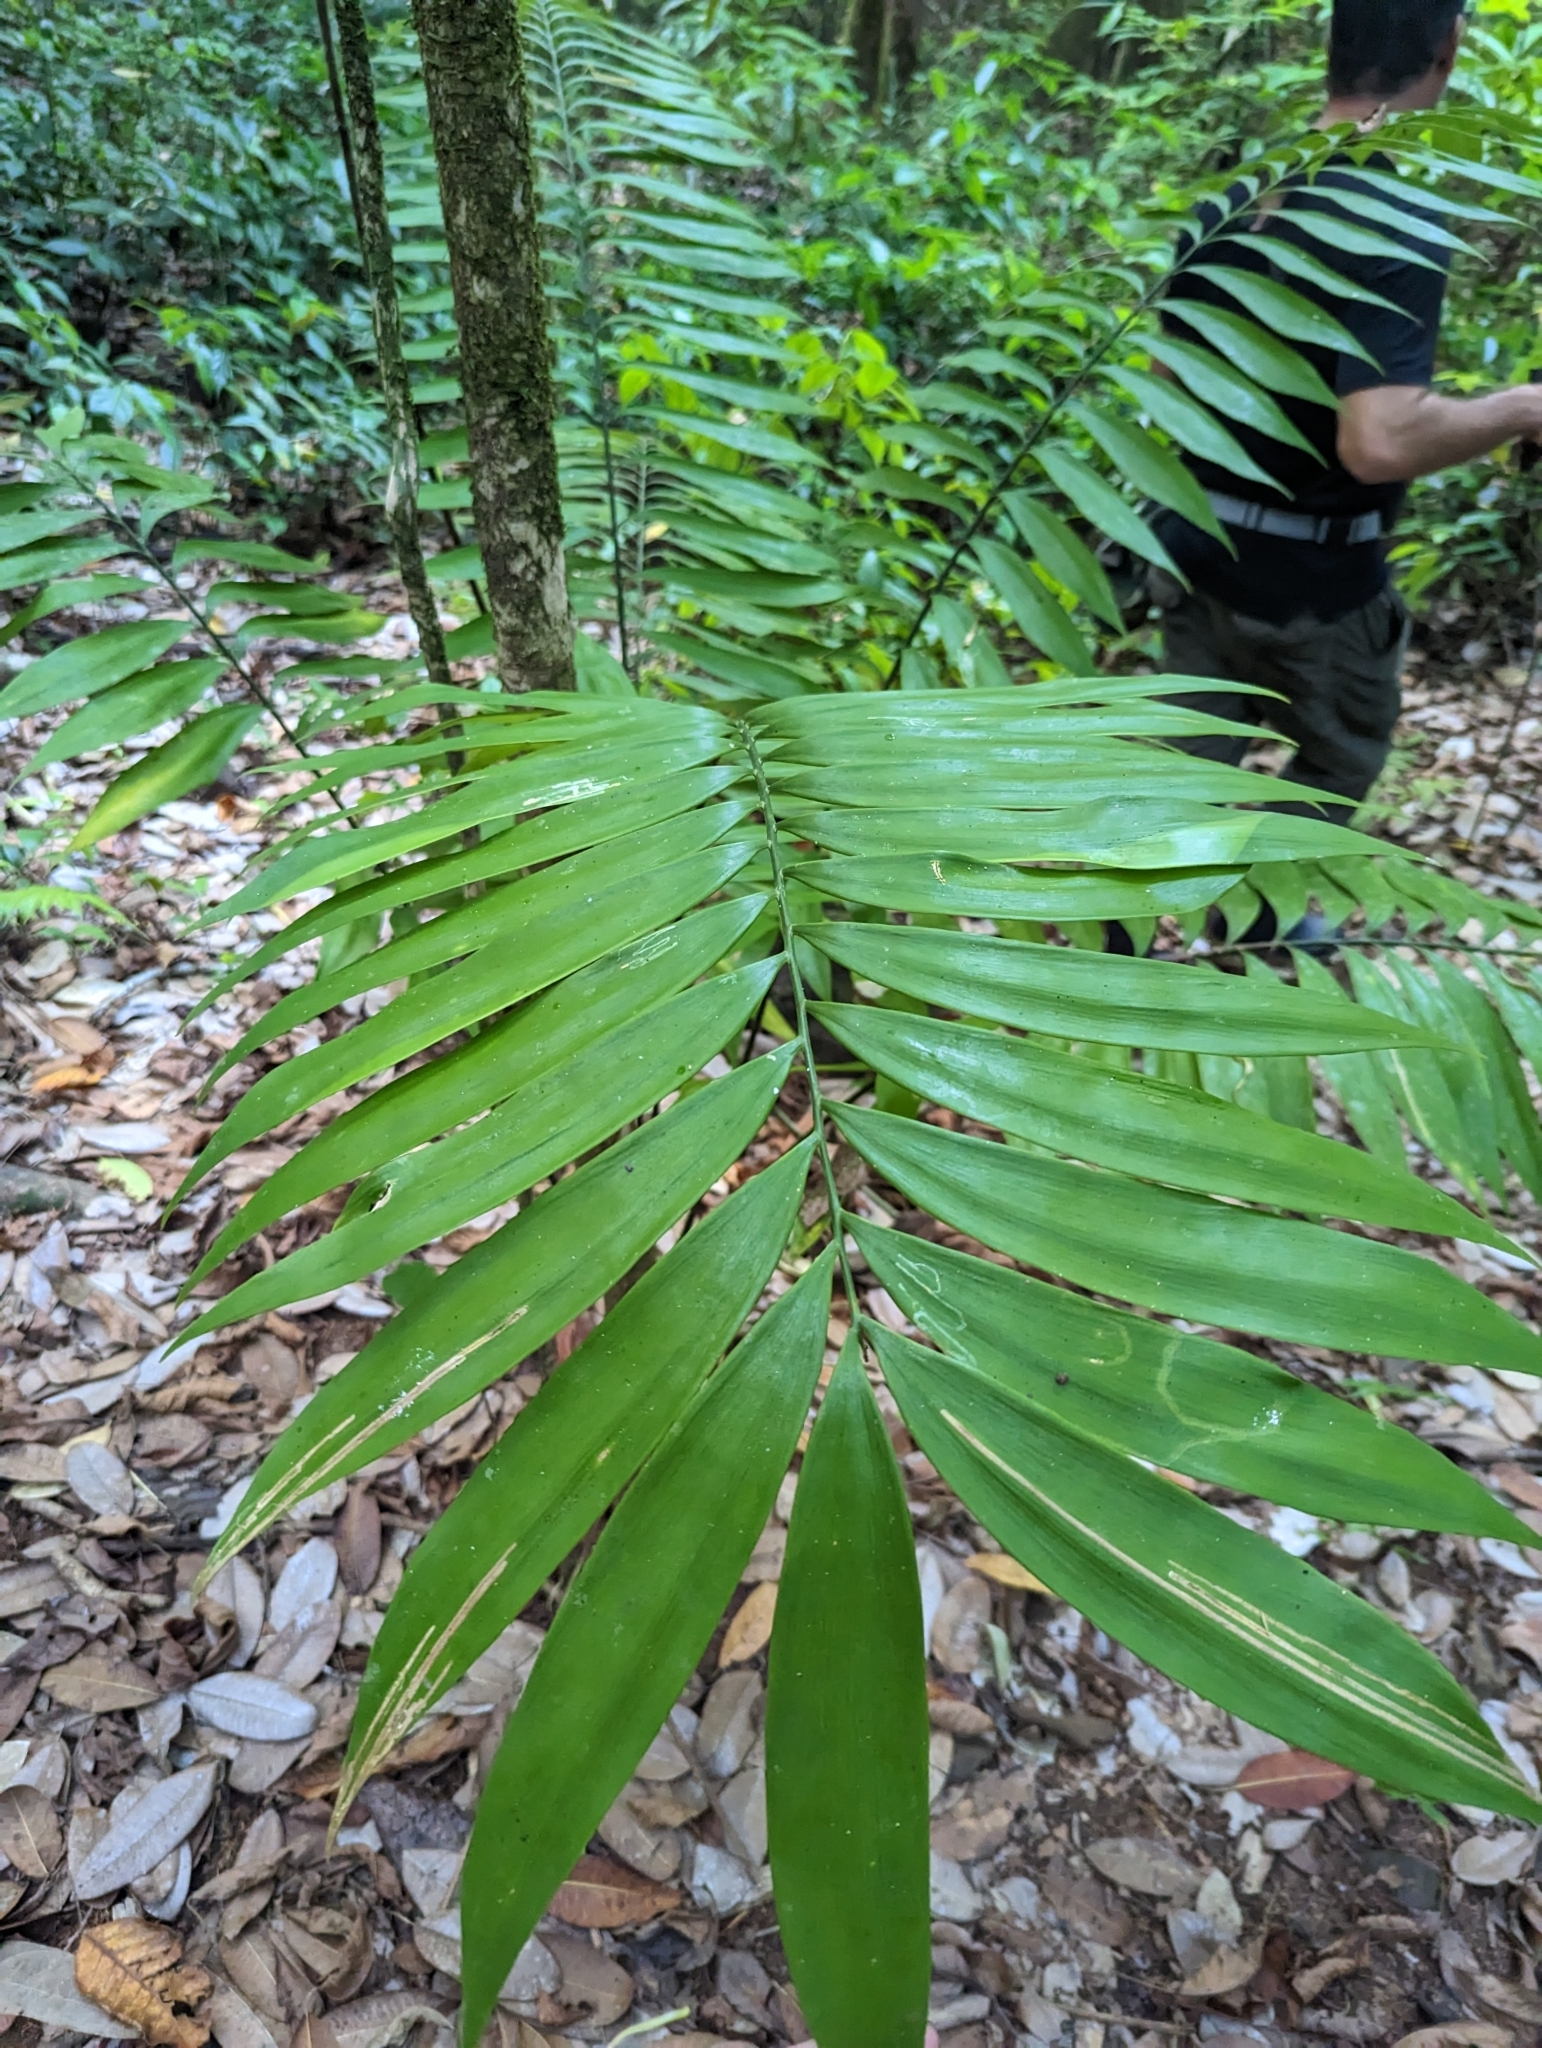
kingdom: Plantae
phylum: Tracheophyta
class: Liliopsida
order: Arecales
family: Arecaceae
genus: Chamaedorea
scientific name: Chamaedorea tepejilote
